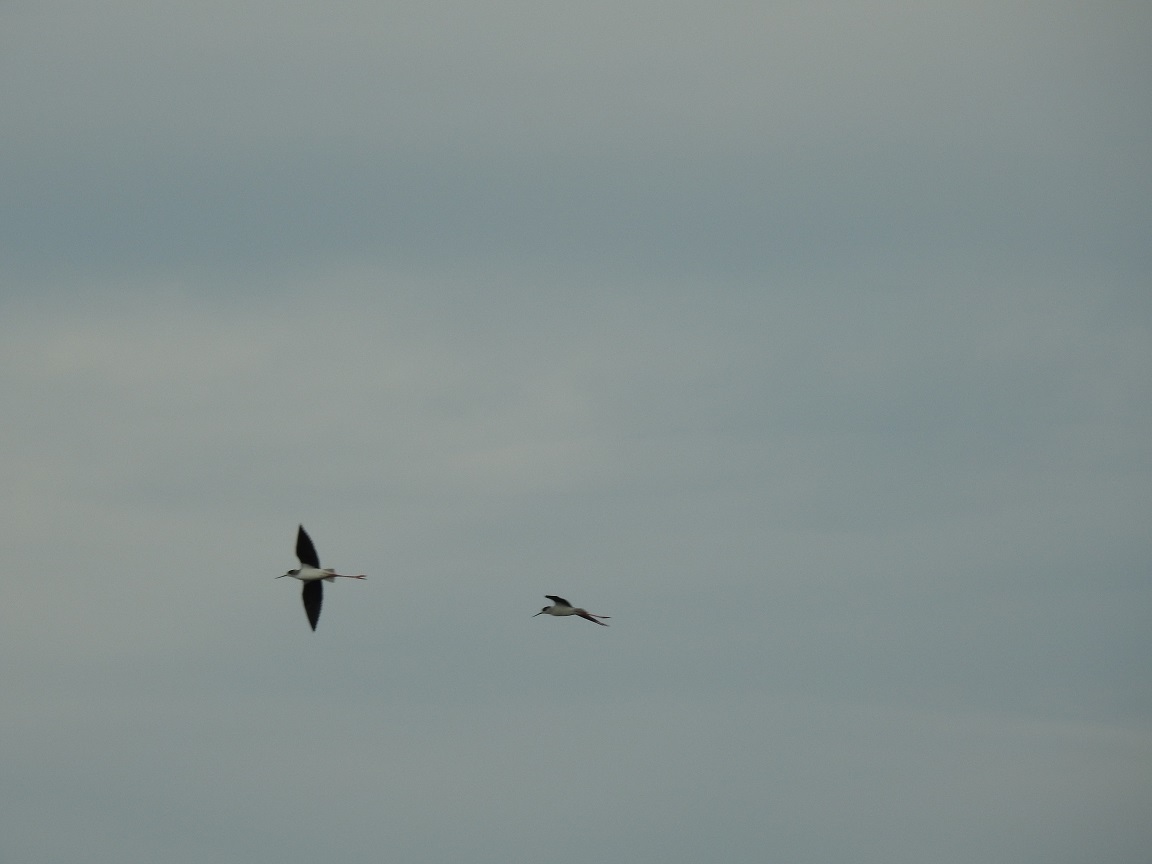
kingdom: Animalia
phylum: Chordata
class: Aves
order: Charadriiformes
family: Recurvirostridae
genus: Himantopus
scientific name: Himantopus himantopus
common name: Black-winged stilt
